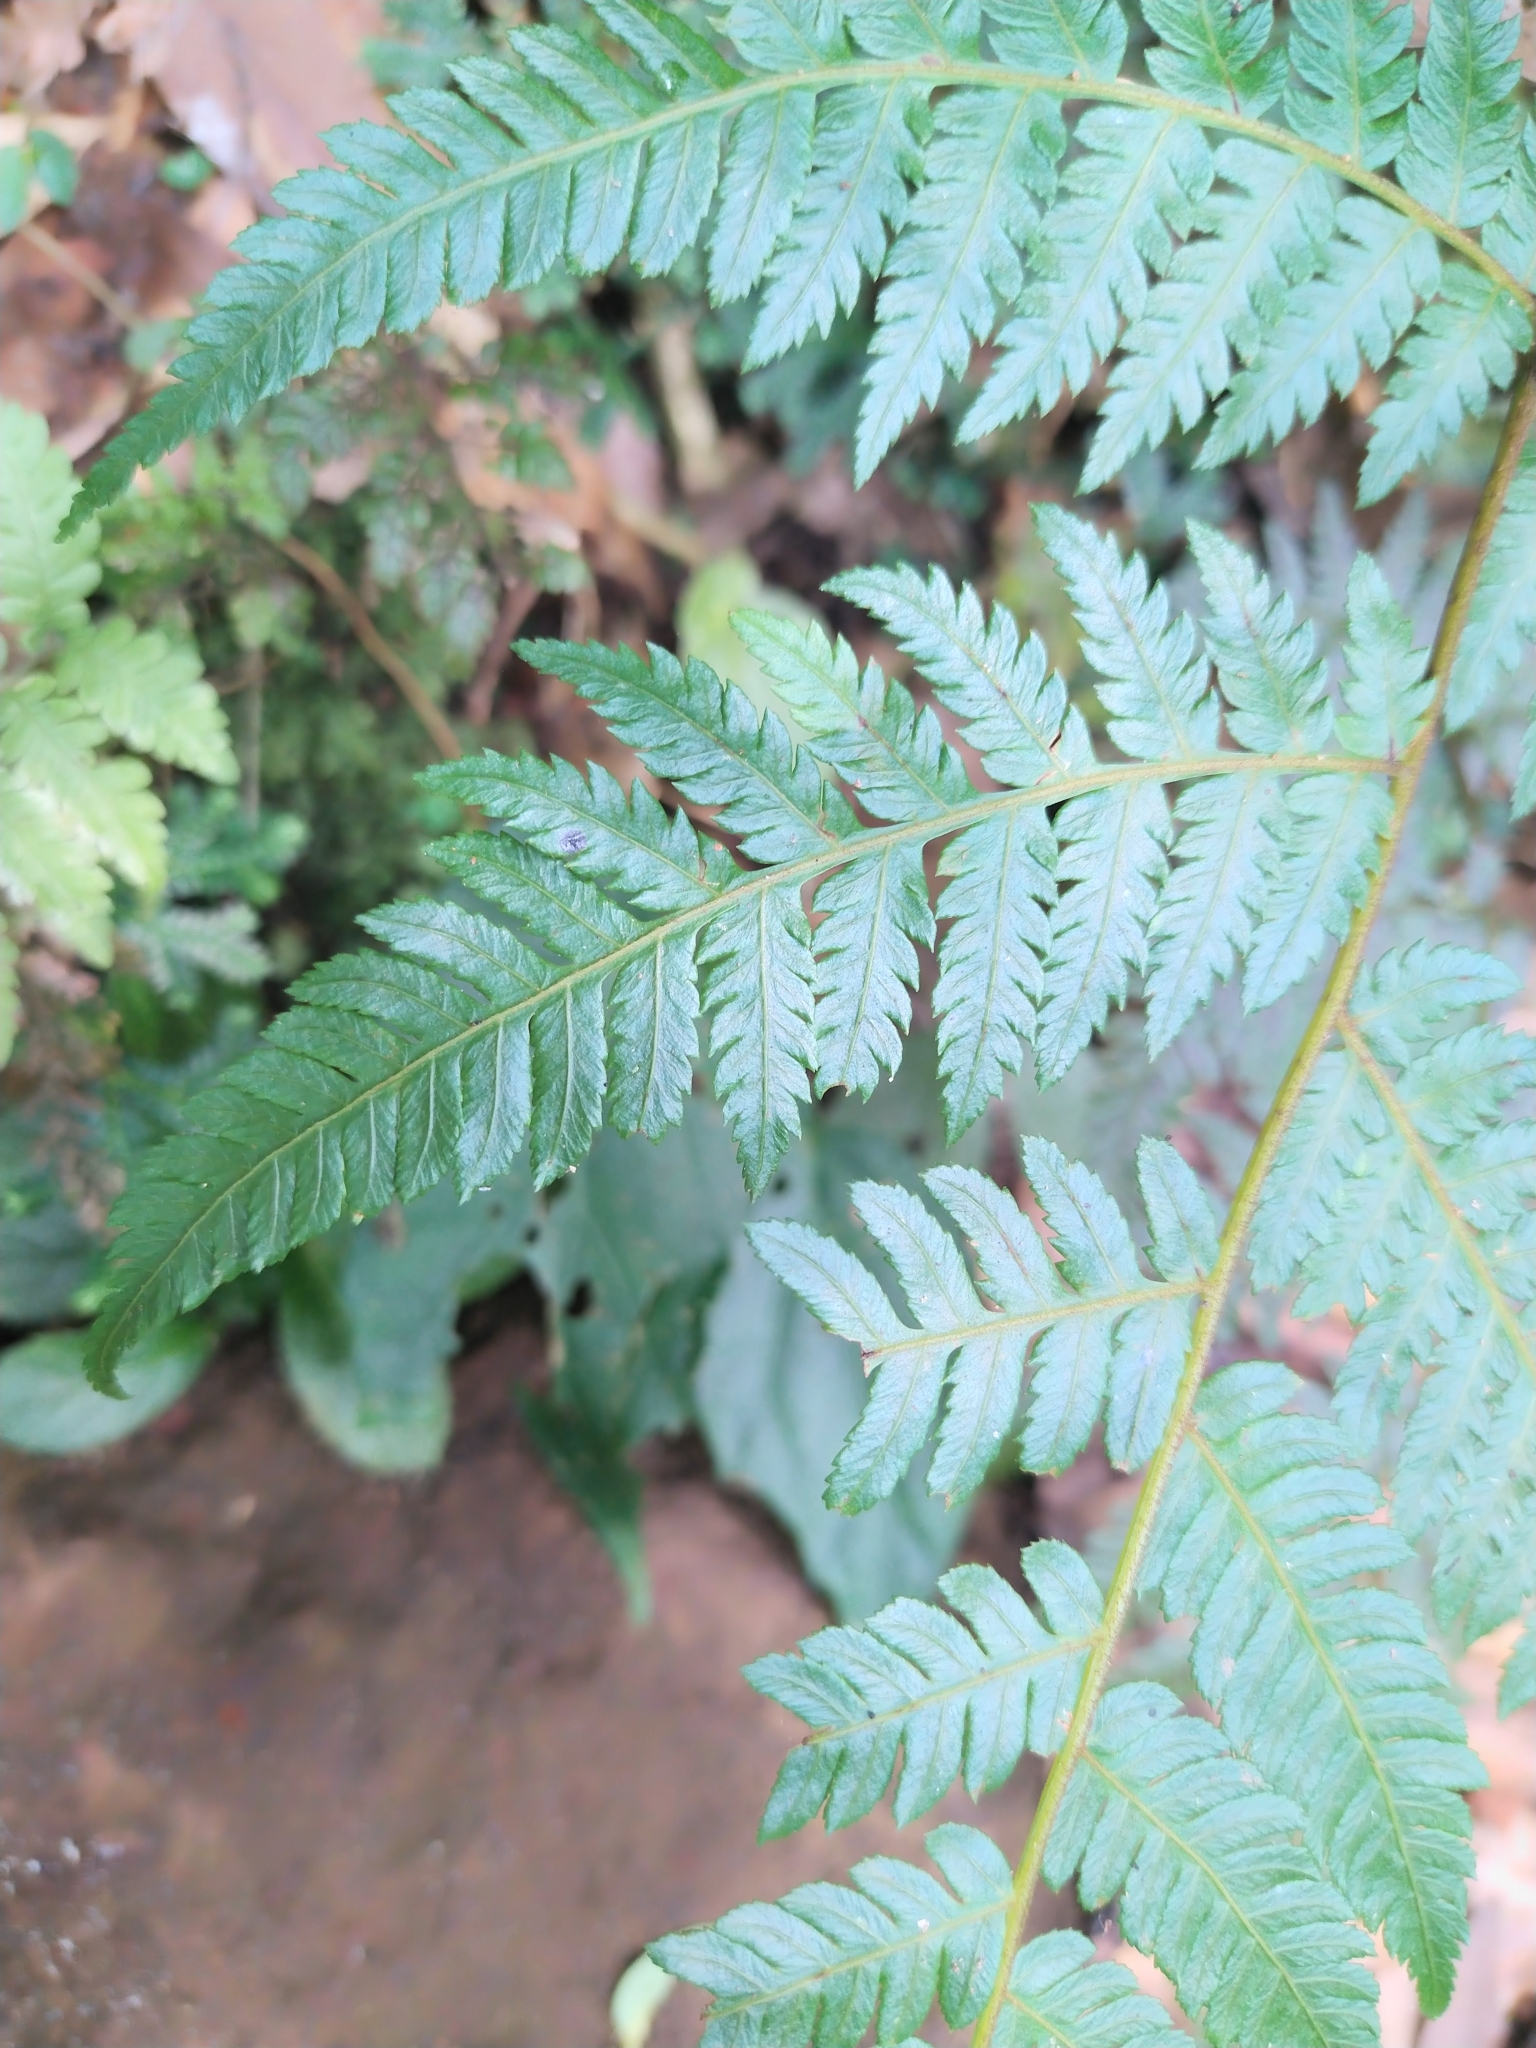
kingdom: Plantae
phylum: Tracheophyta
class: Polypodiopsida
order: Cyatheales
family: Cyatheaceae
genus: Alsophila
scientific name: Alsophila spinulosa
